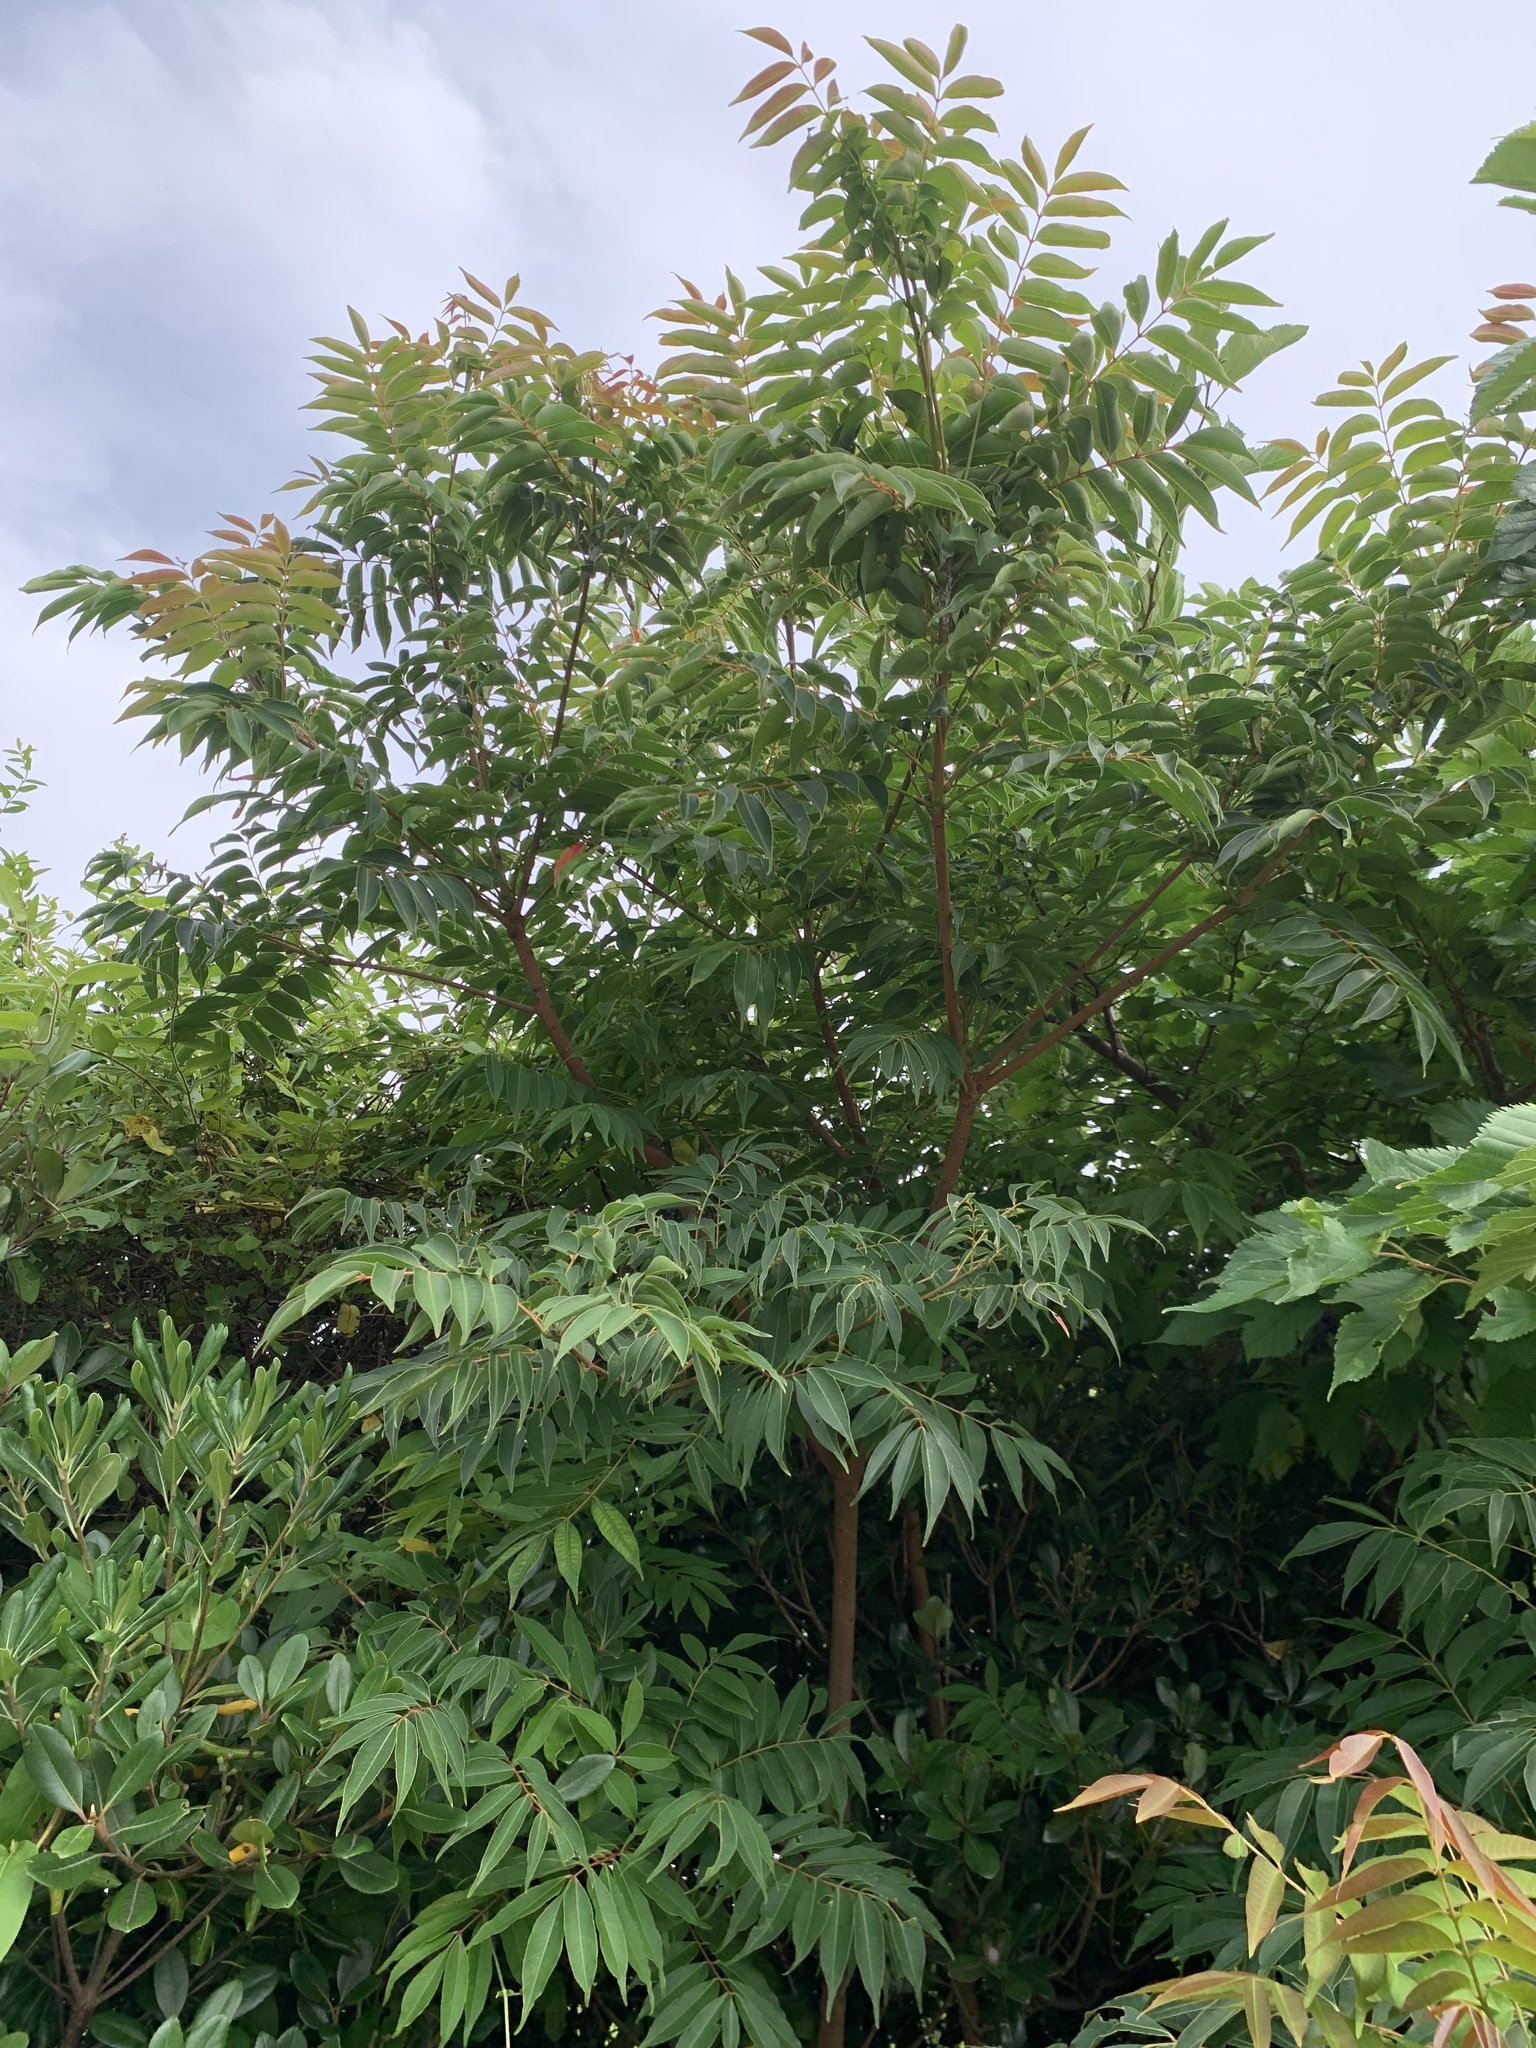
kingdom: Plantae
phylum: Tracheophyta
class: Magnoliopsida
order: Sapindales
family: Anacardiaceae
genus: Toxicodendron
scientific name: Toxicodendron succedaneum
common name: Wax tree
